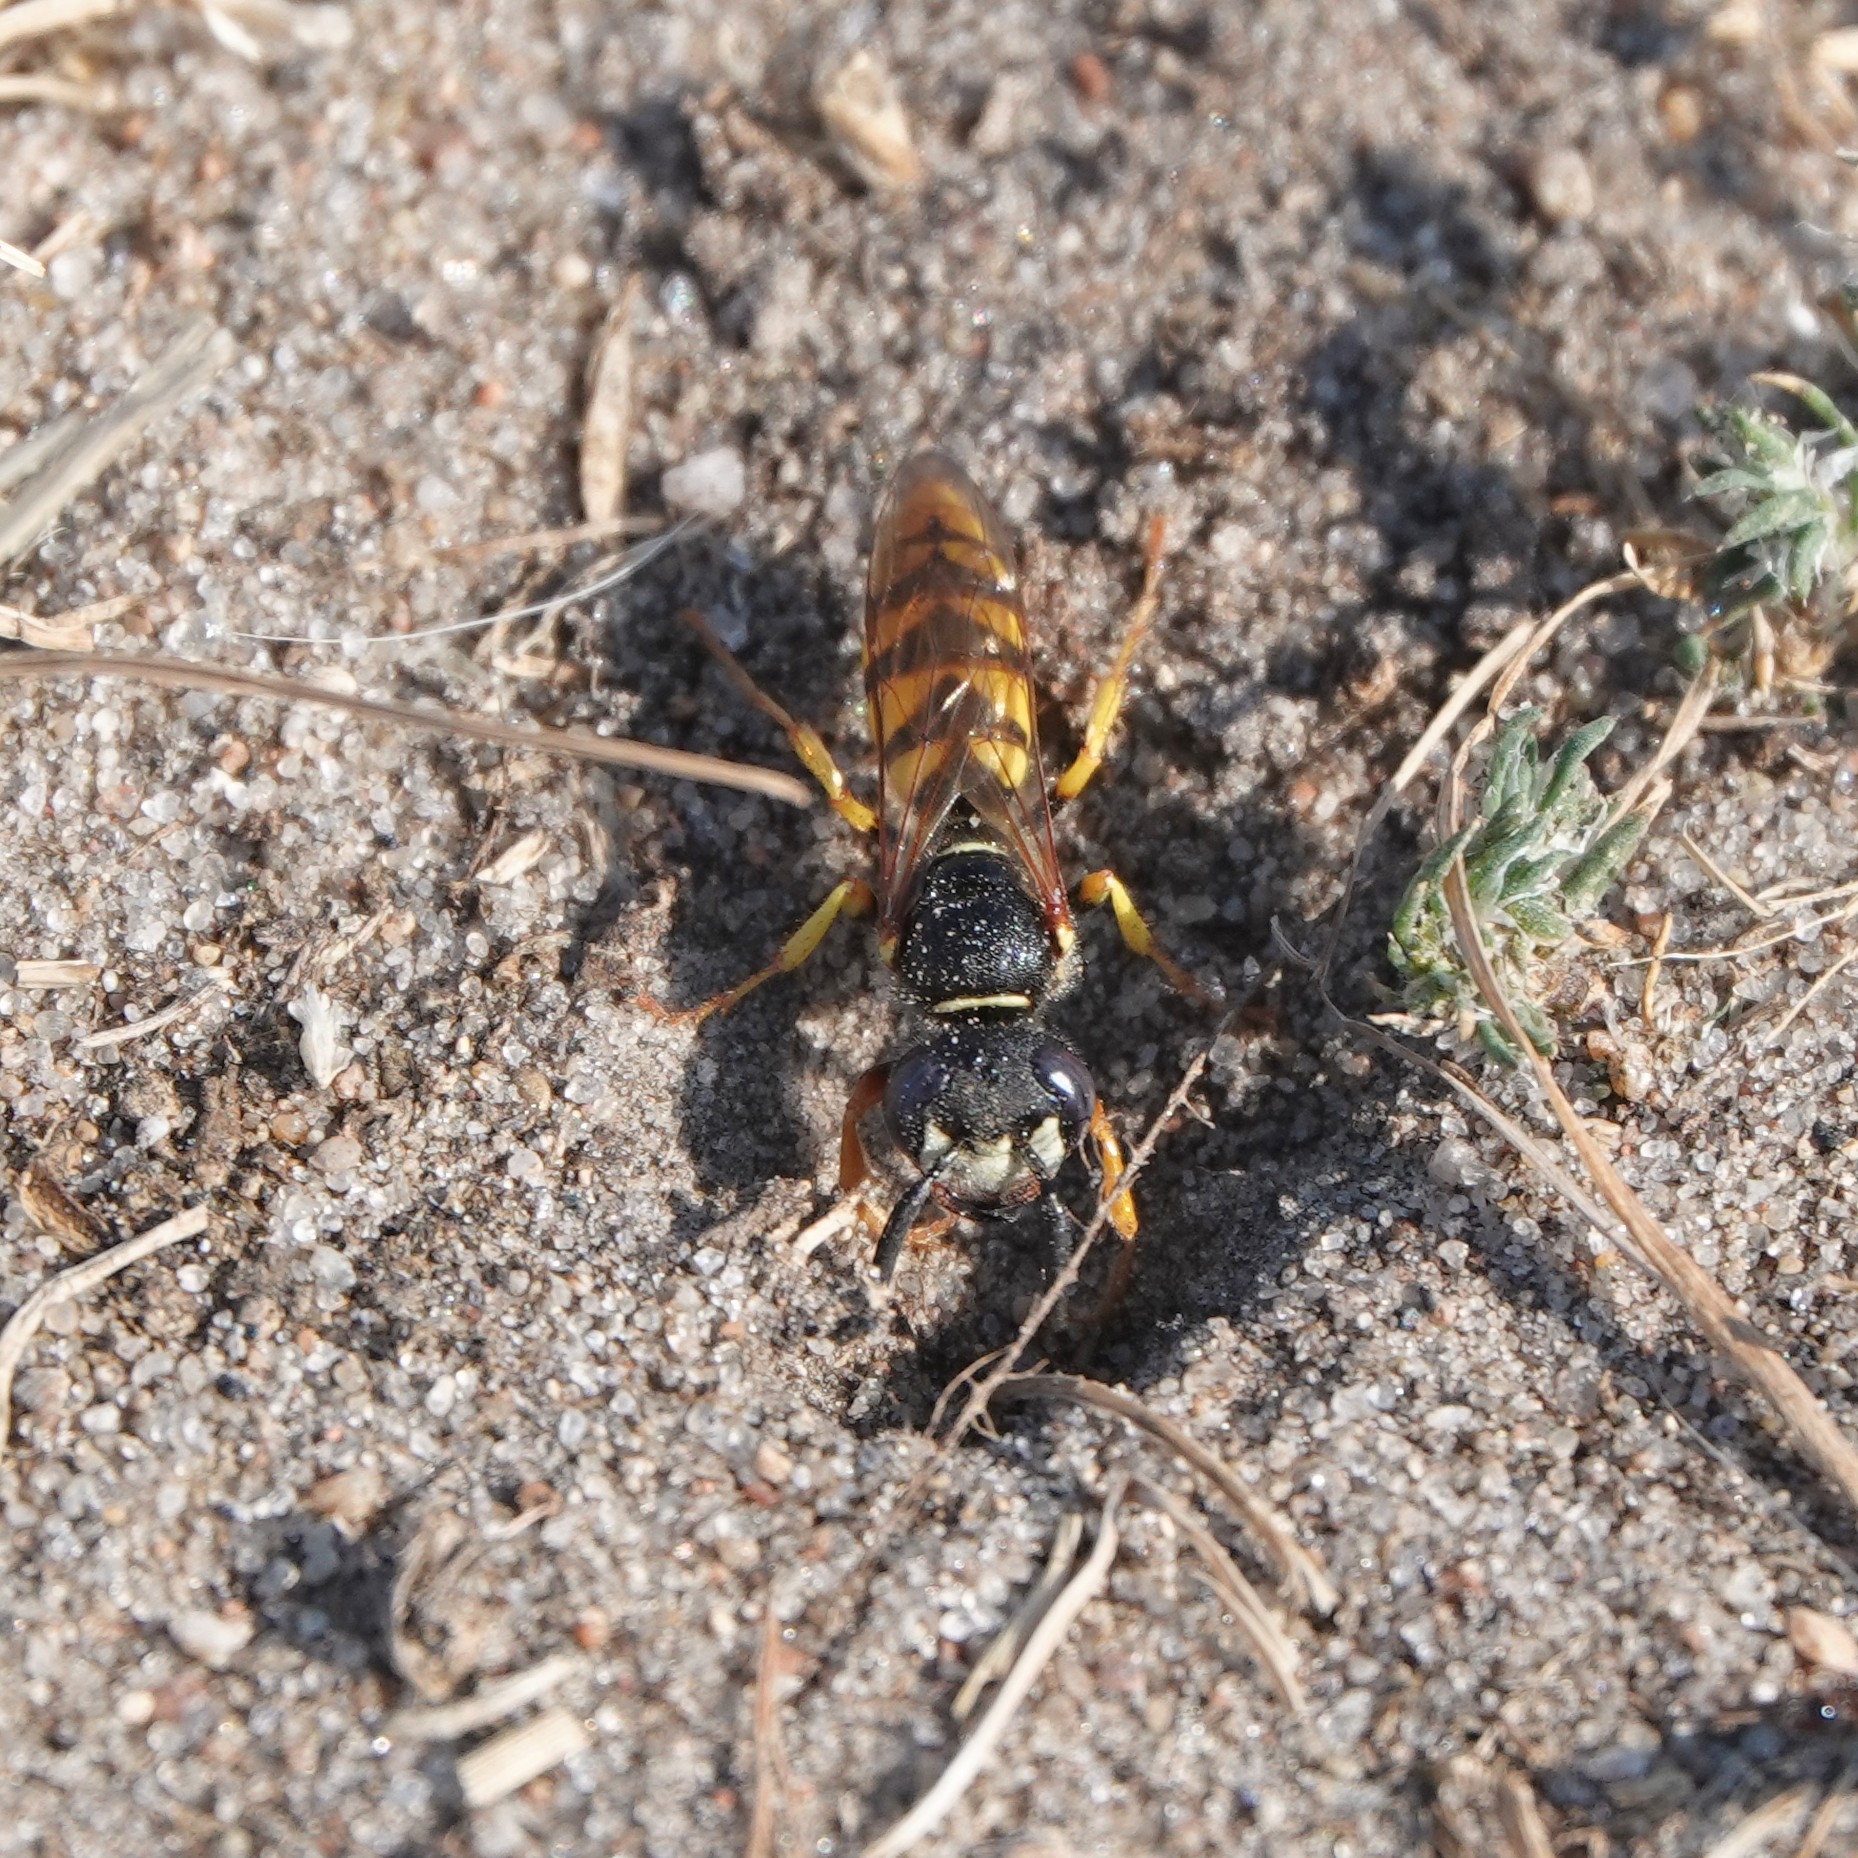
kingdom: Animalia
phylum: Arthropoda
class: Insecta
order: Hymenoptera
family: Crabronidae
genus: Philanthus
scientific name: Philanthus triangulum
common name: Bee wolf
